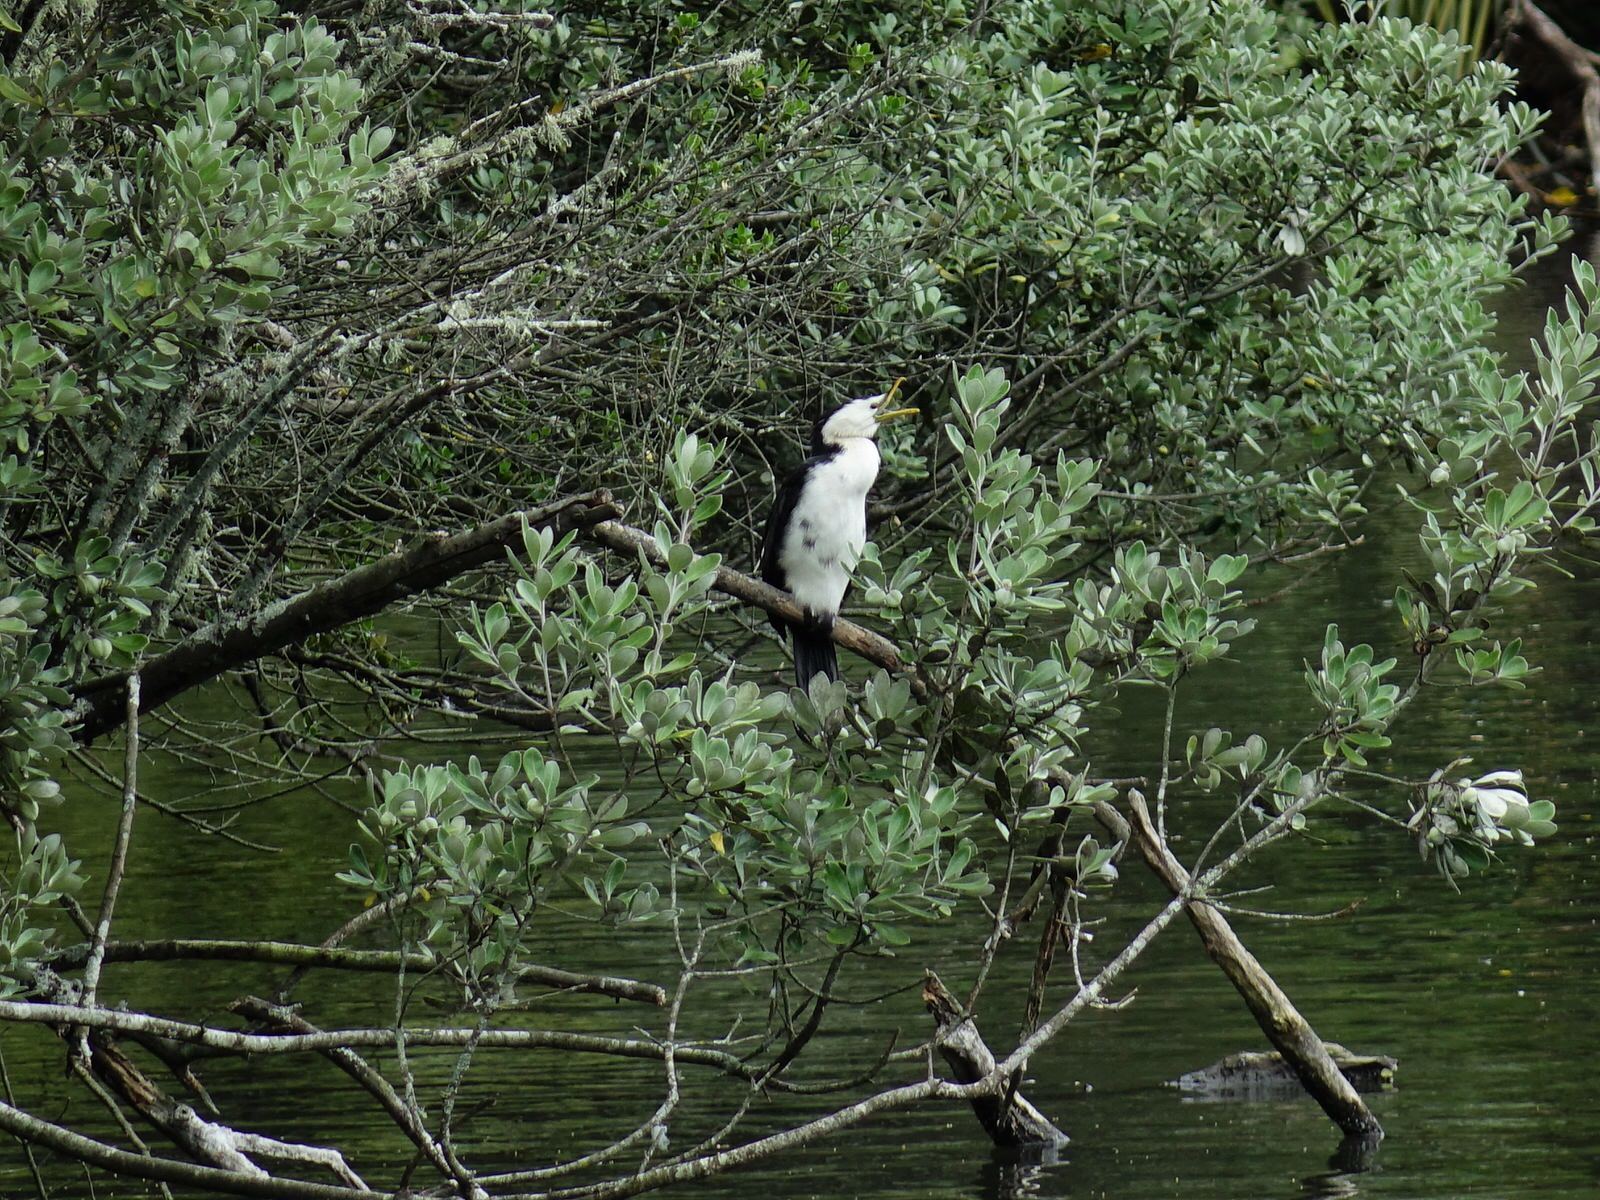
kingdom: Animalia
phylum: Chordata
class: Aves
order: Suliformes
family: Phalacrocoracidae
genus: Microcarbo
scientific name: Microcarbo melanoleucos
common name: Little pied cormorant
